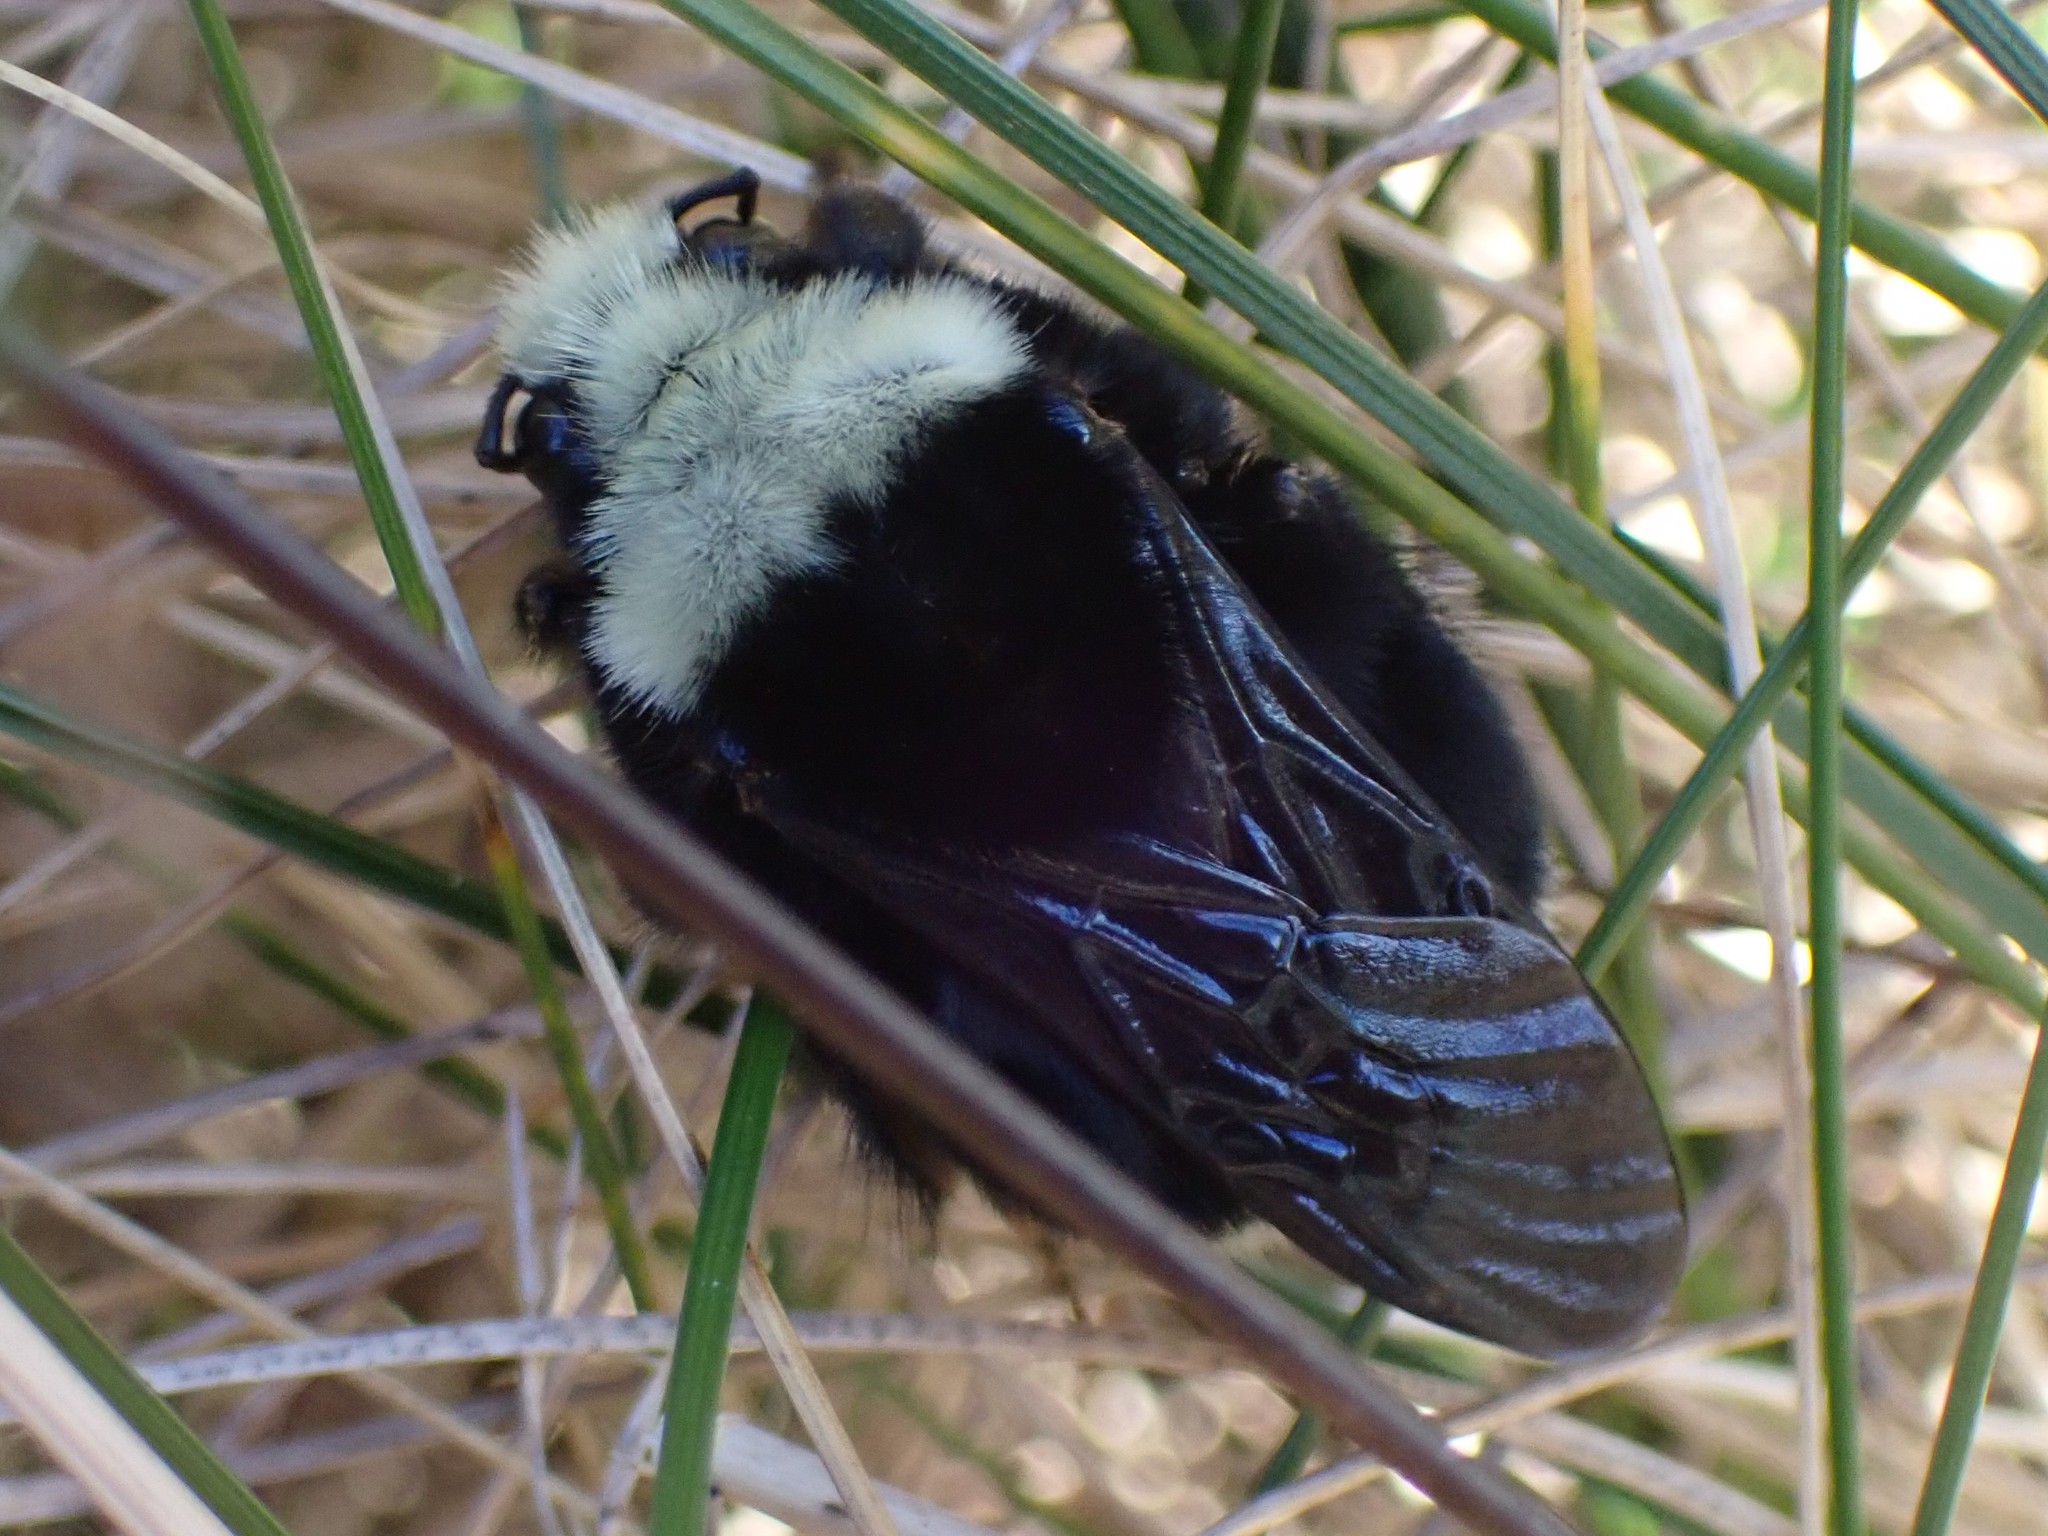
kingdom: Animalia
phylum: Arthropoda
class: Insecta
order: Hymenoptera
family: Apidae
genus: Bombus
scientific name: Bombus vosnesenskii
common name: Vosnesensky bumble bee
